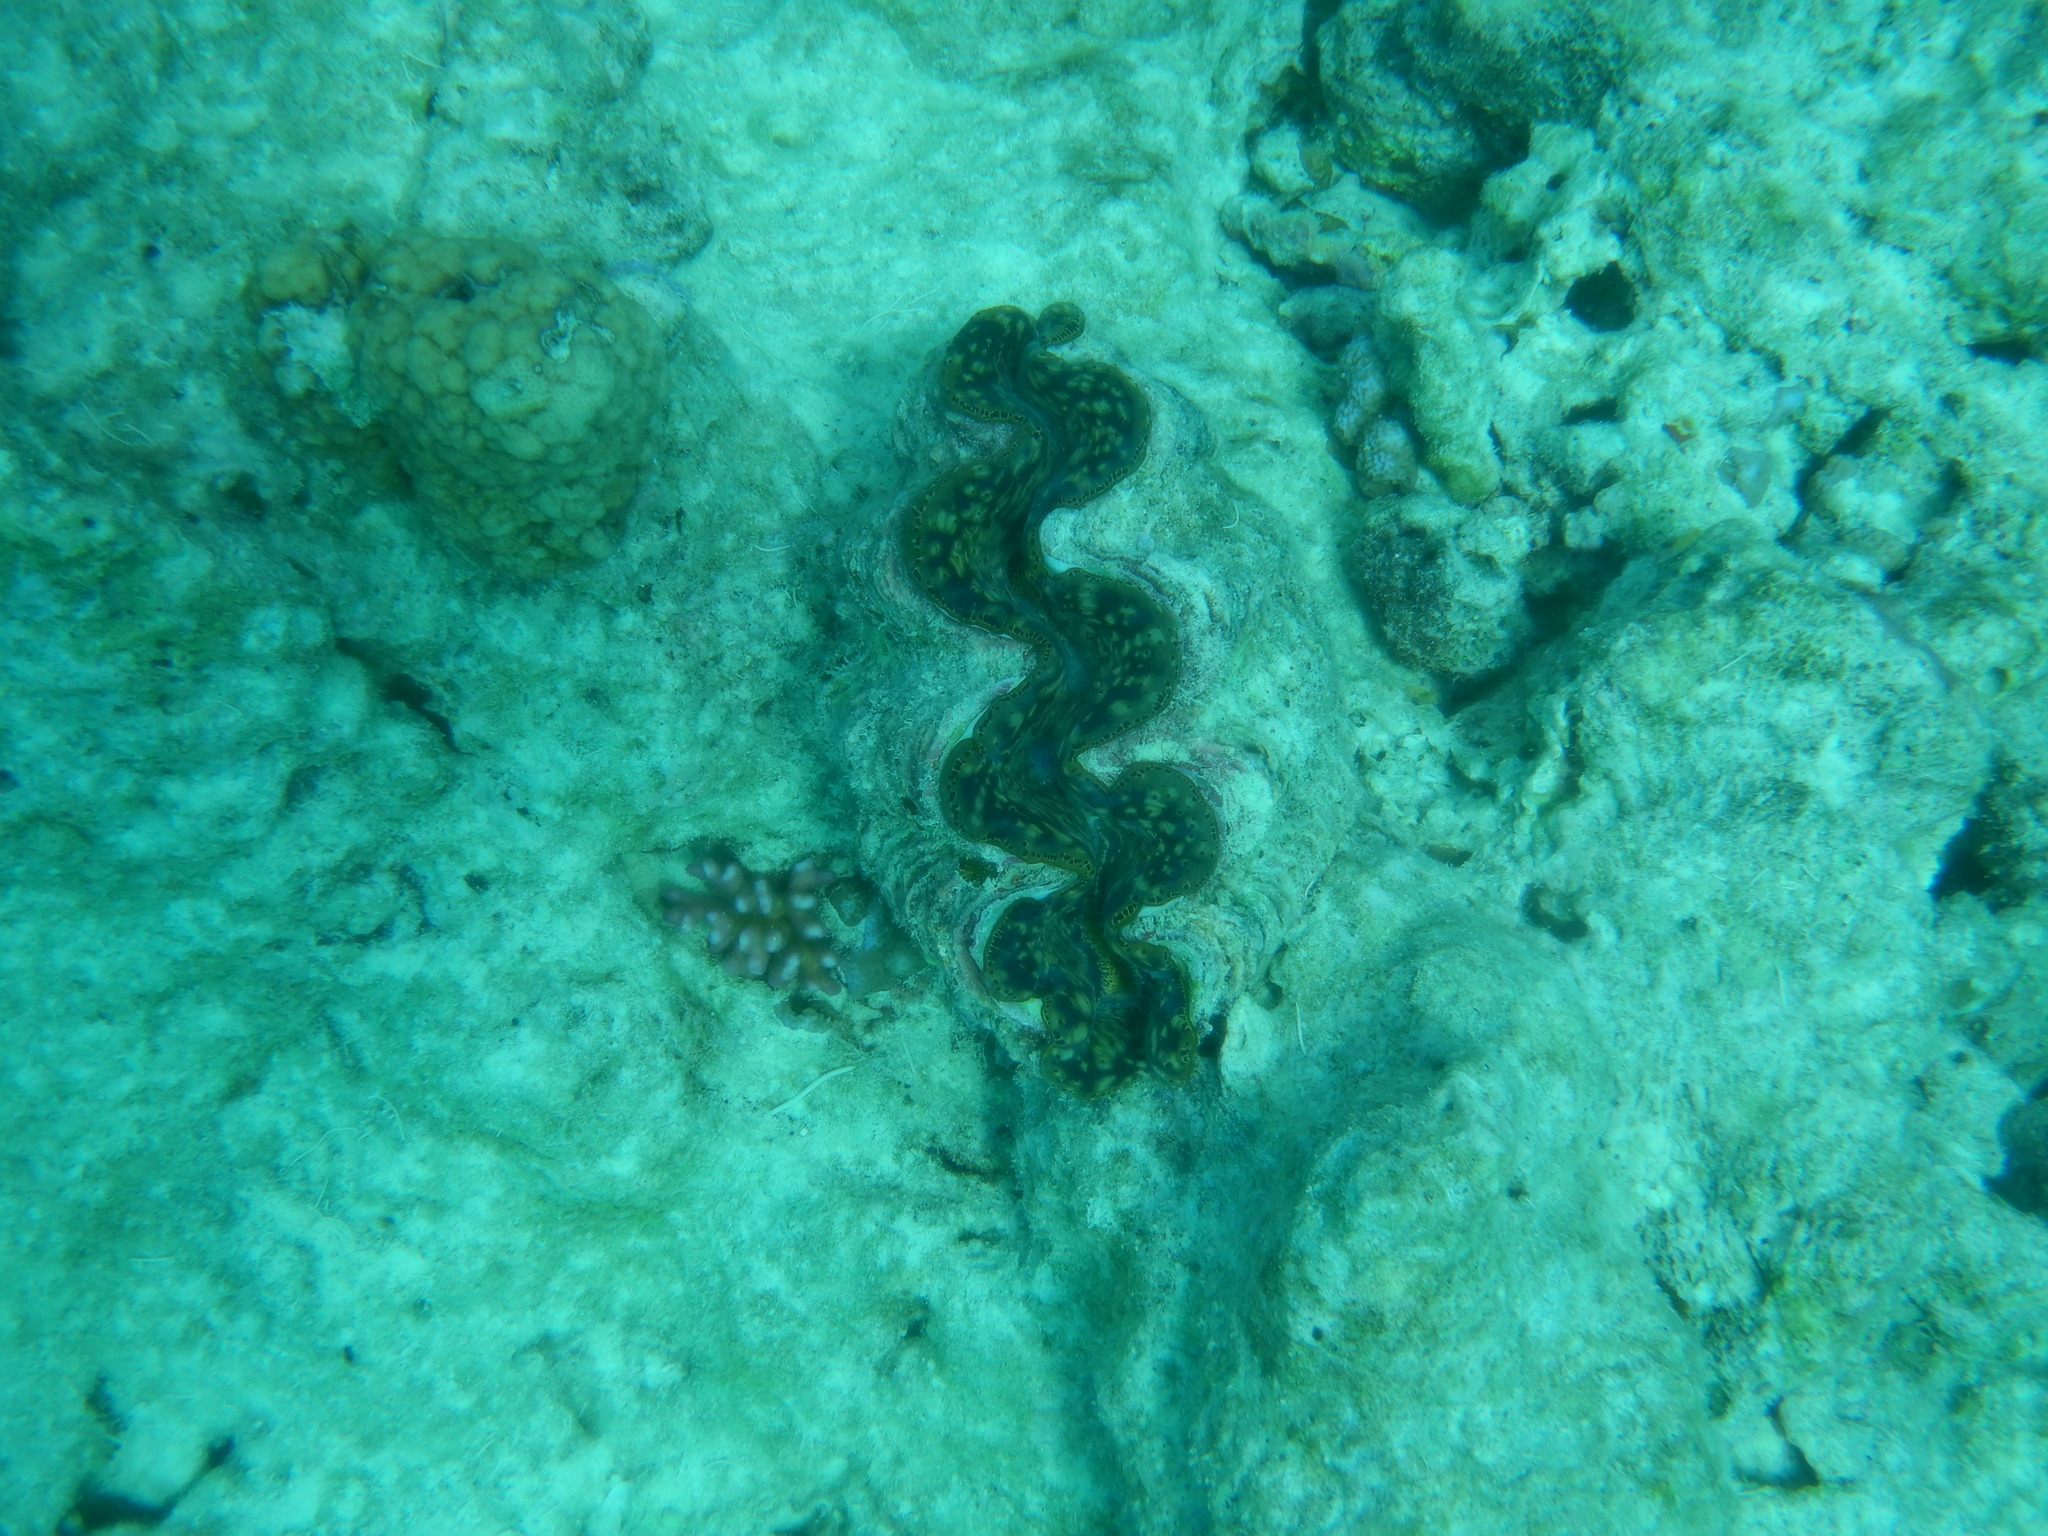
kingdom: Animalia
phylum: Mollusca
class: Bivalvia
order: Cardiida
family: Cardiidae
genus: Tridacna
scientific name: Tridacna maxima
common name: Small giant clam
